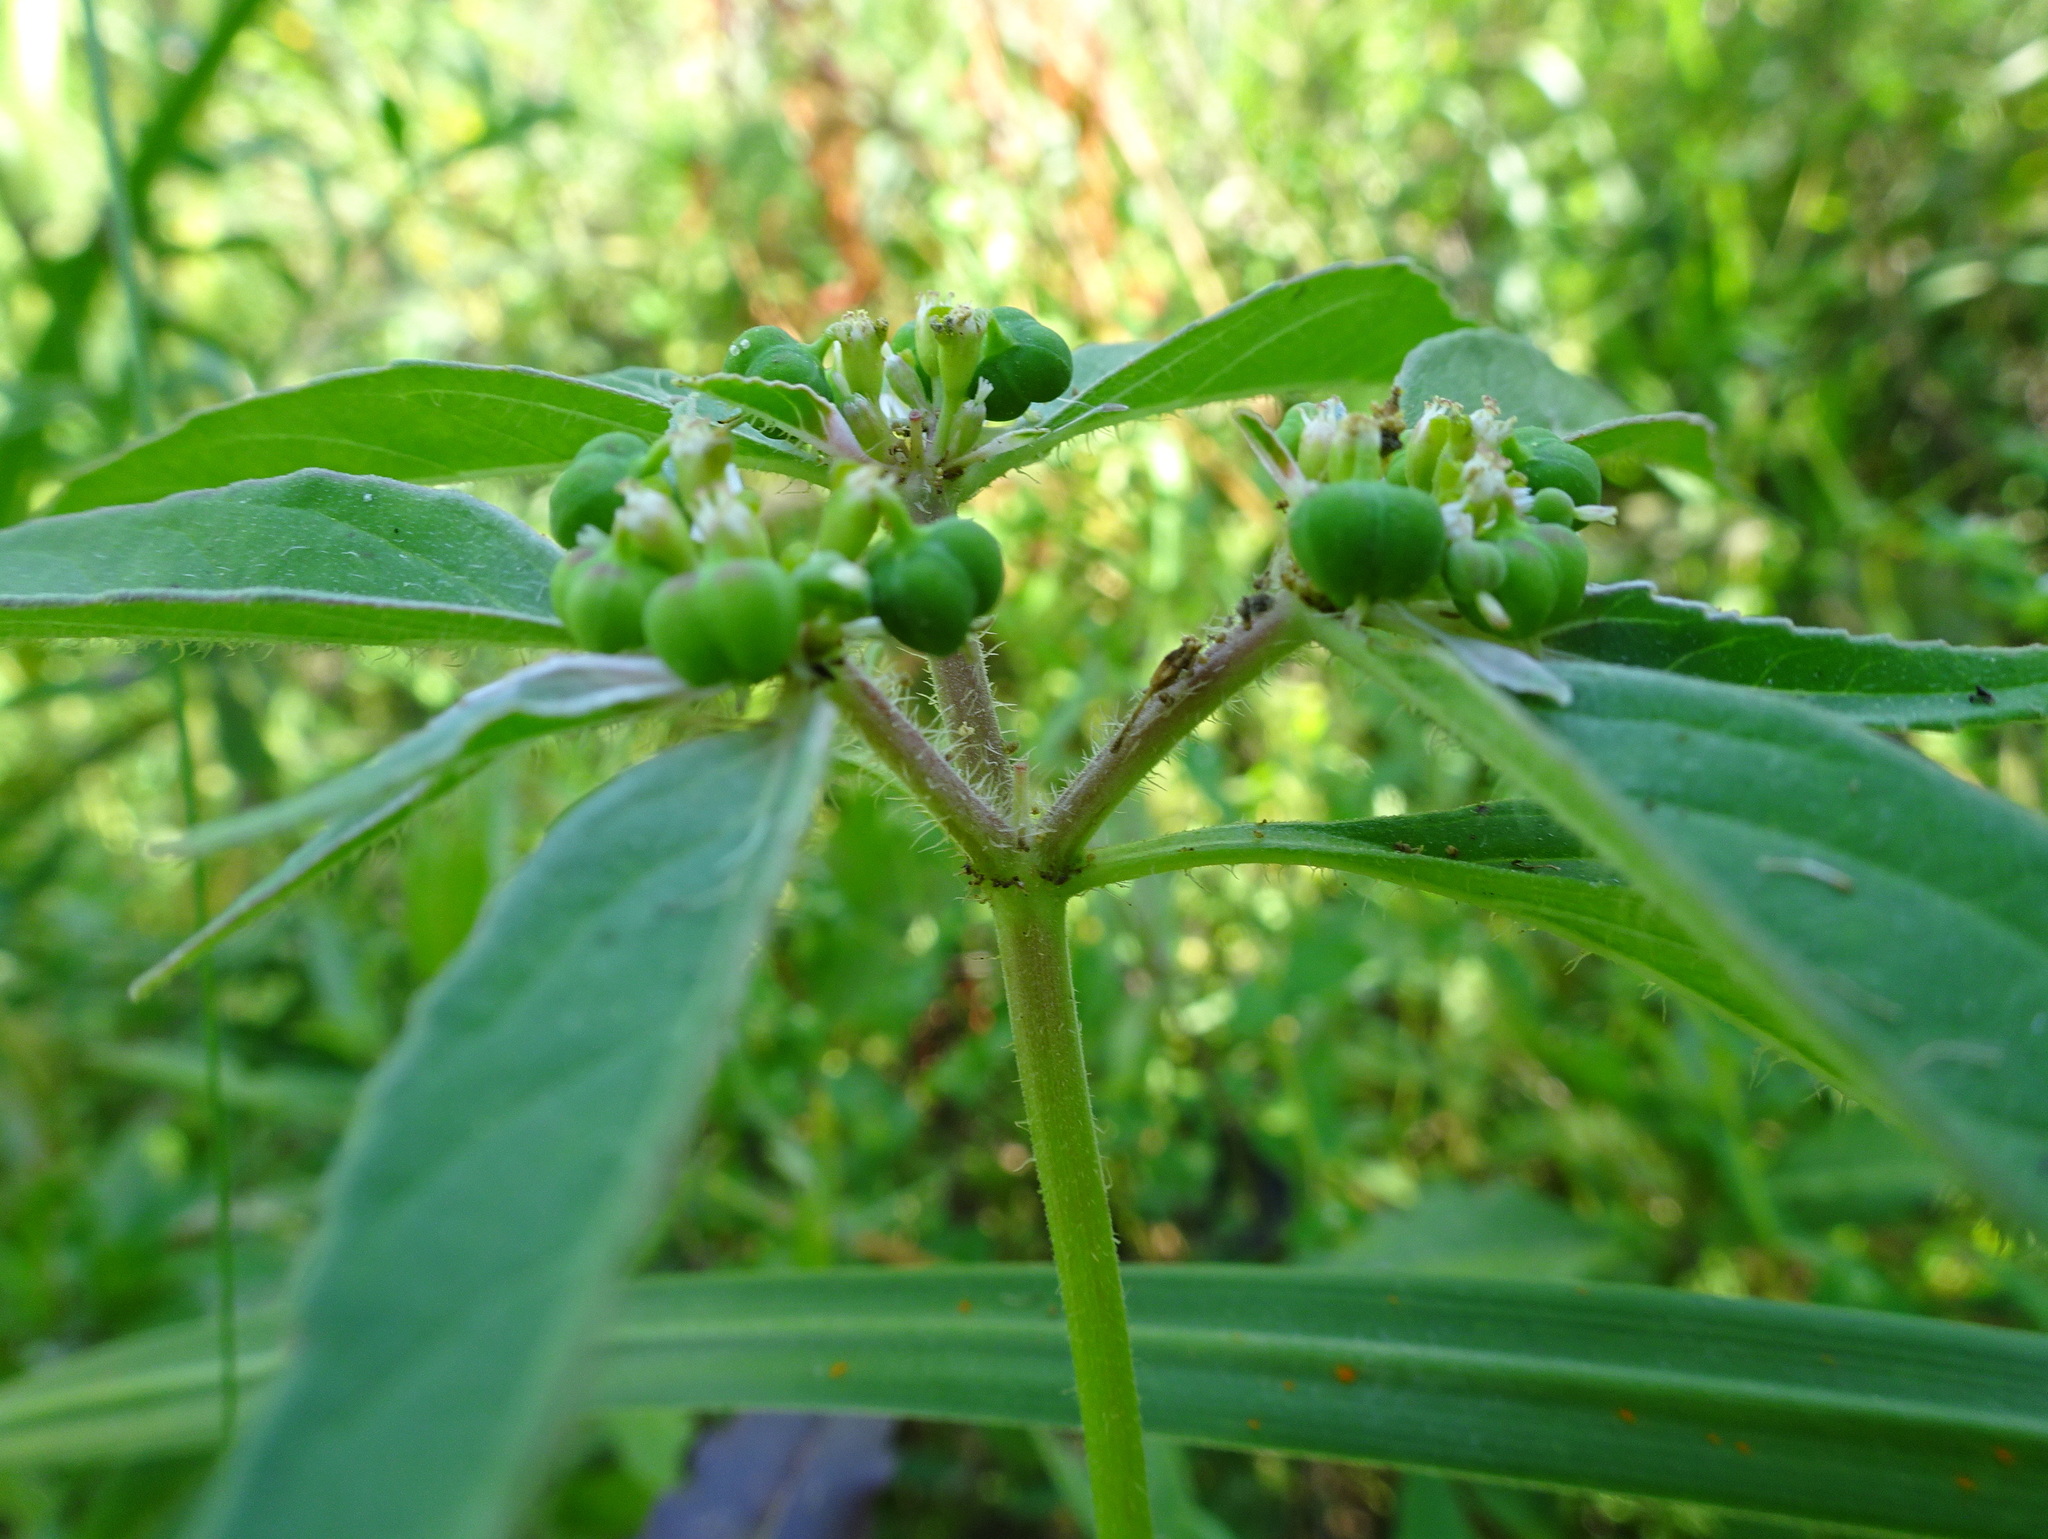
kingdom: Plantae
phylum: Tracheophyta
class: Magnoliopsida
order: Malpighiales
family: Euphorbiaceae
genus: Euphorbia
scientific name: Euphorbia dentata
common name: Dentate spurge
